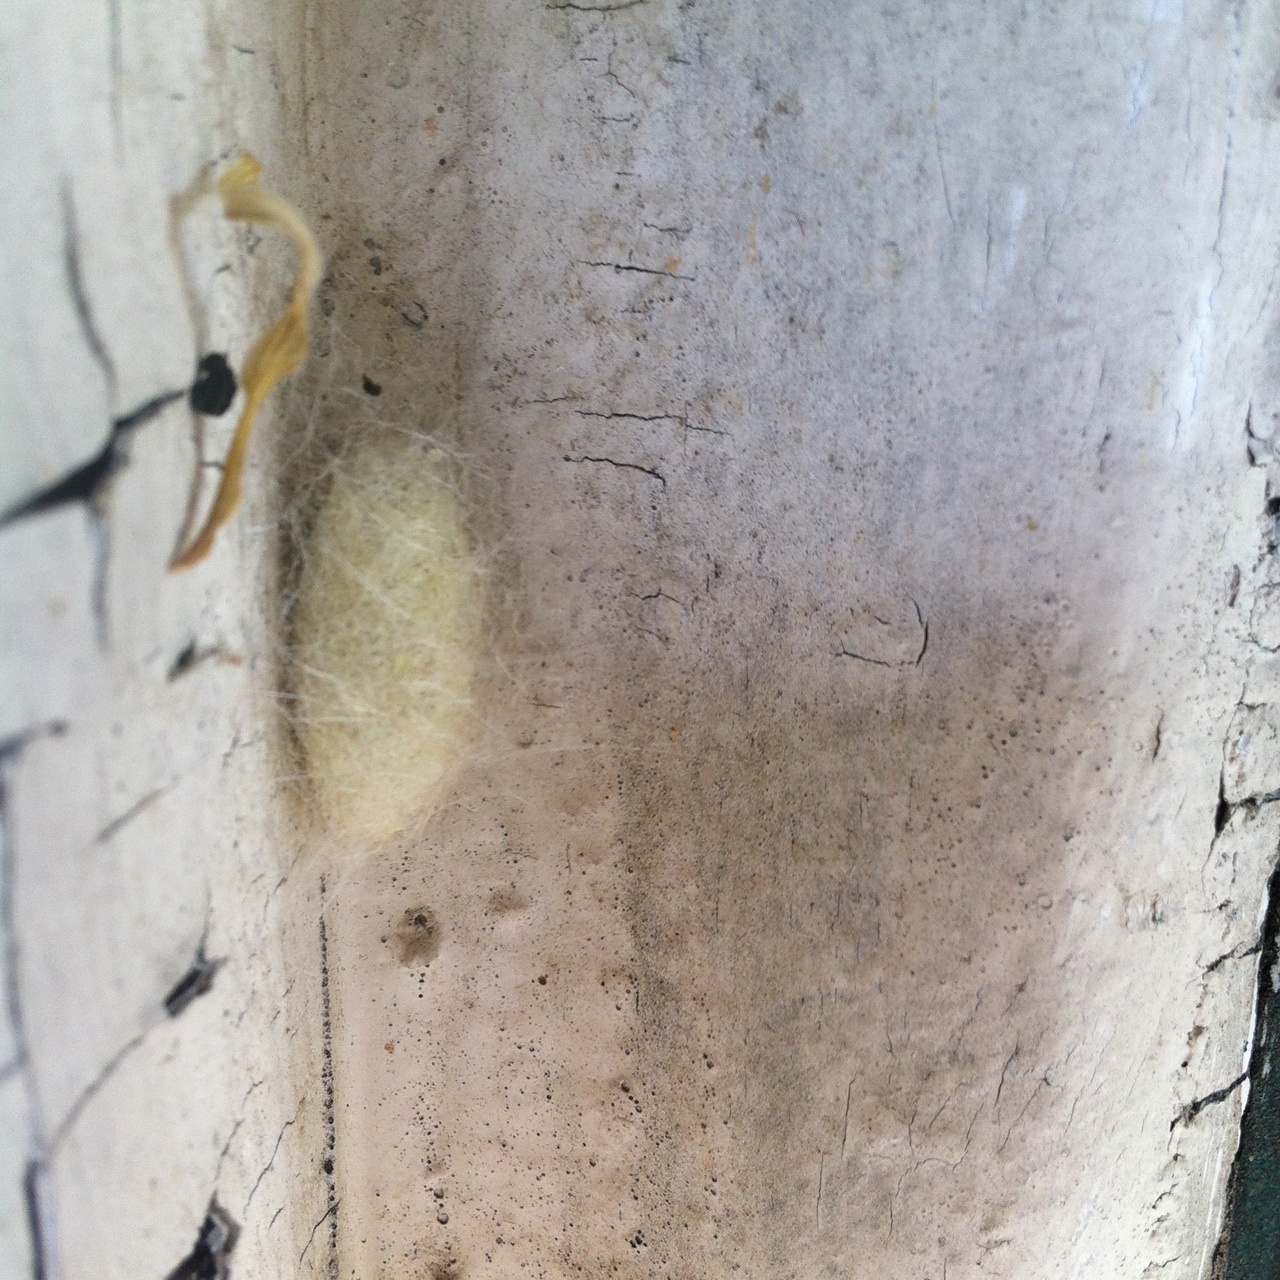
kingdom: Animalia
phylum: Arthropoda
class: Insecta
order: Lepidoptera
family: Lasiocampidae
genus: Malacosoma
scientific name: Malacosoma americana
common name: Eastern tent caterpillar moth
